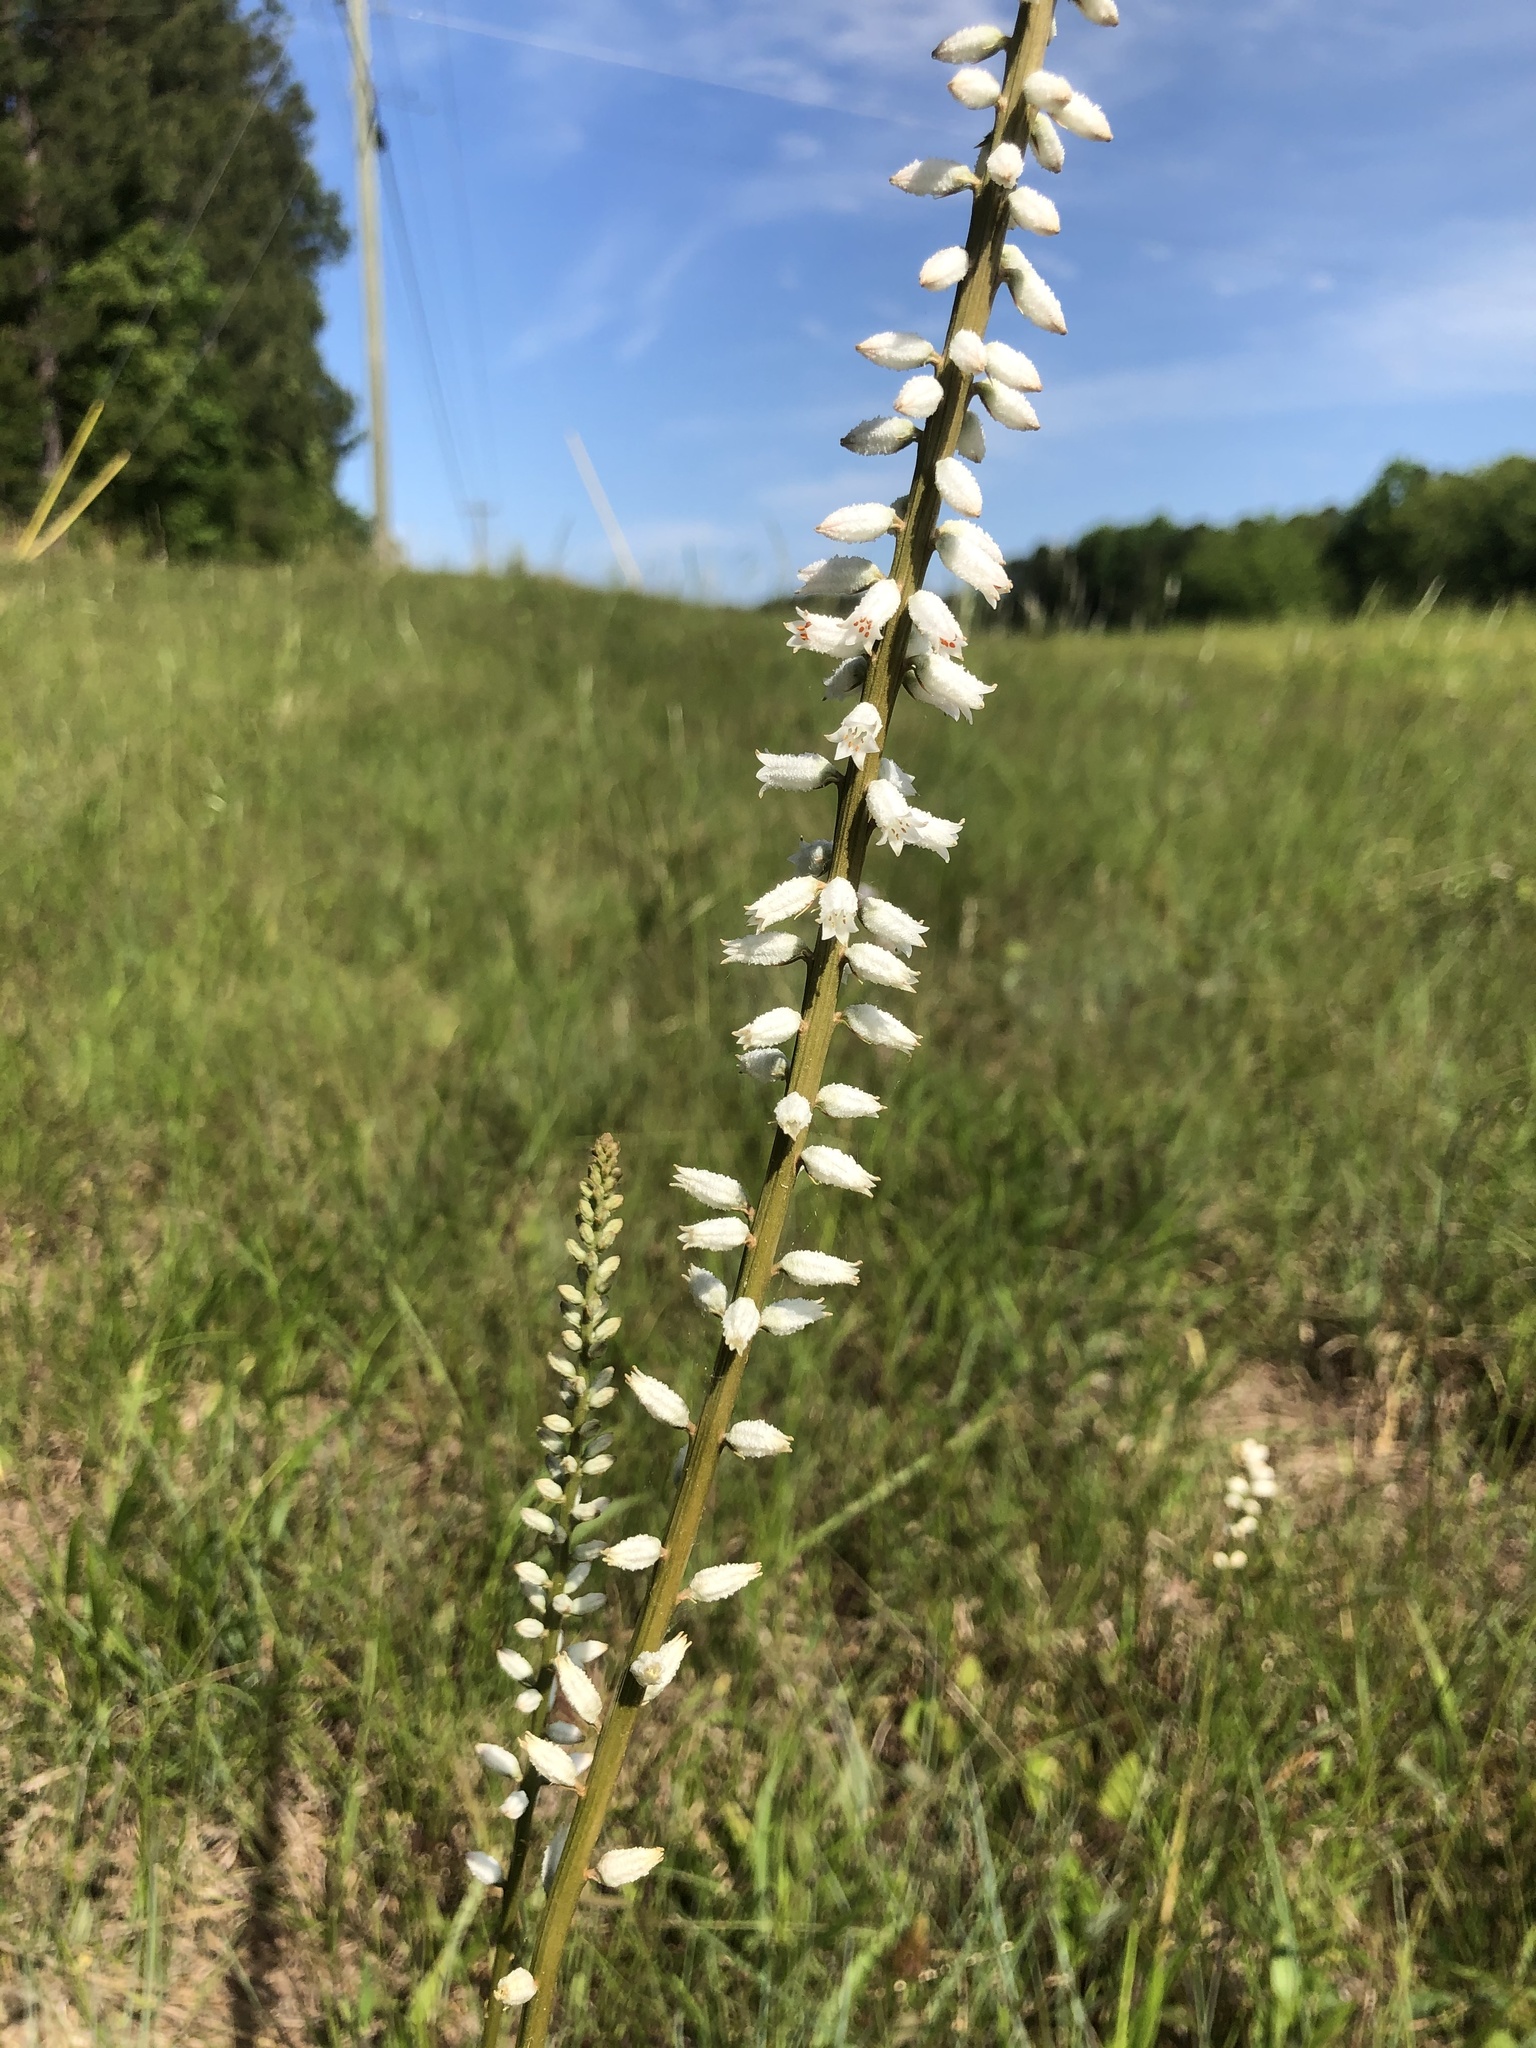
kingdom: Plantae
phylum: Tracheophyta
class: Liliopsida
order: Dioscoreales
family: Nartheciaceae
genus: Aletris
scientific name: Aletris farinosa
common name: Colicroot
